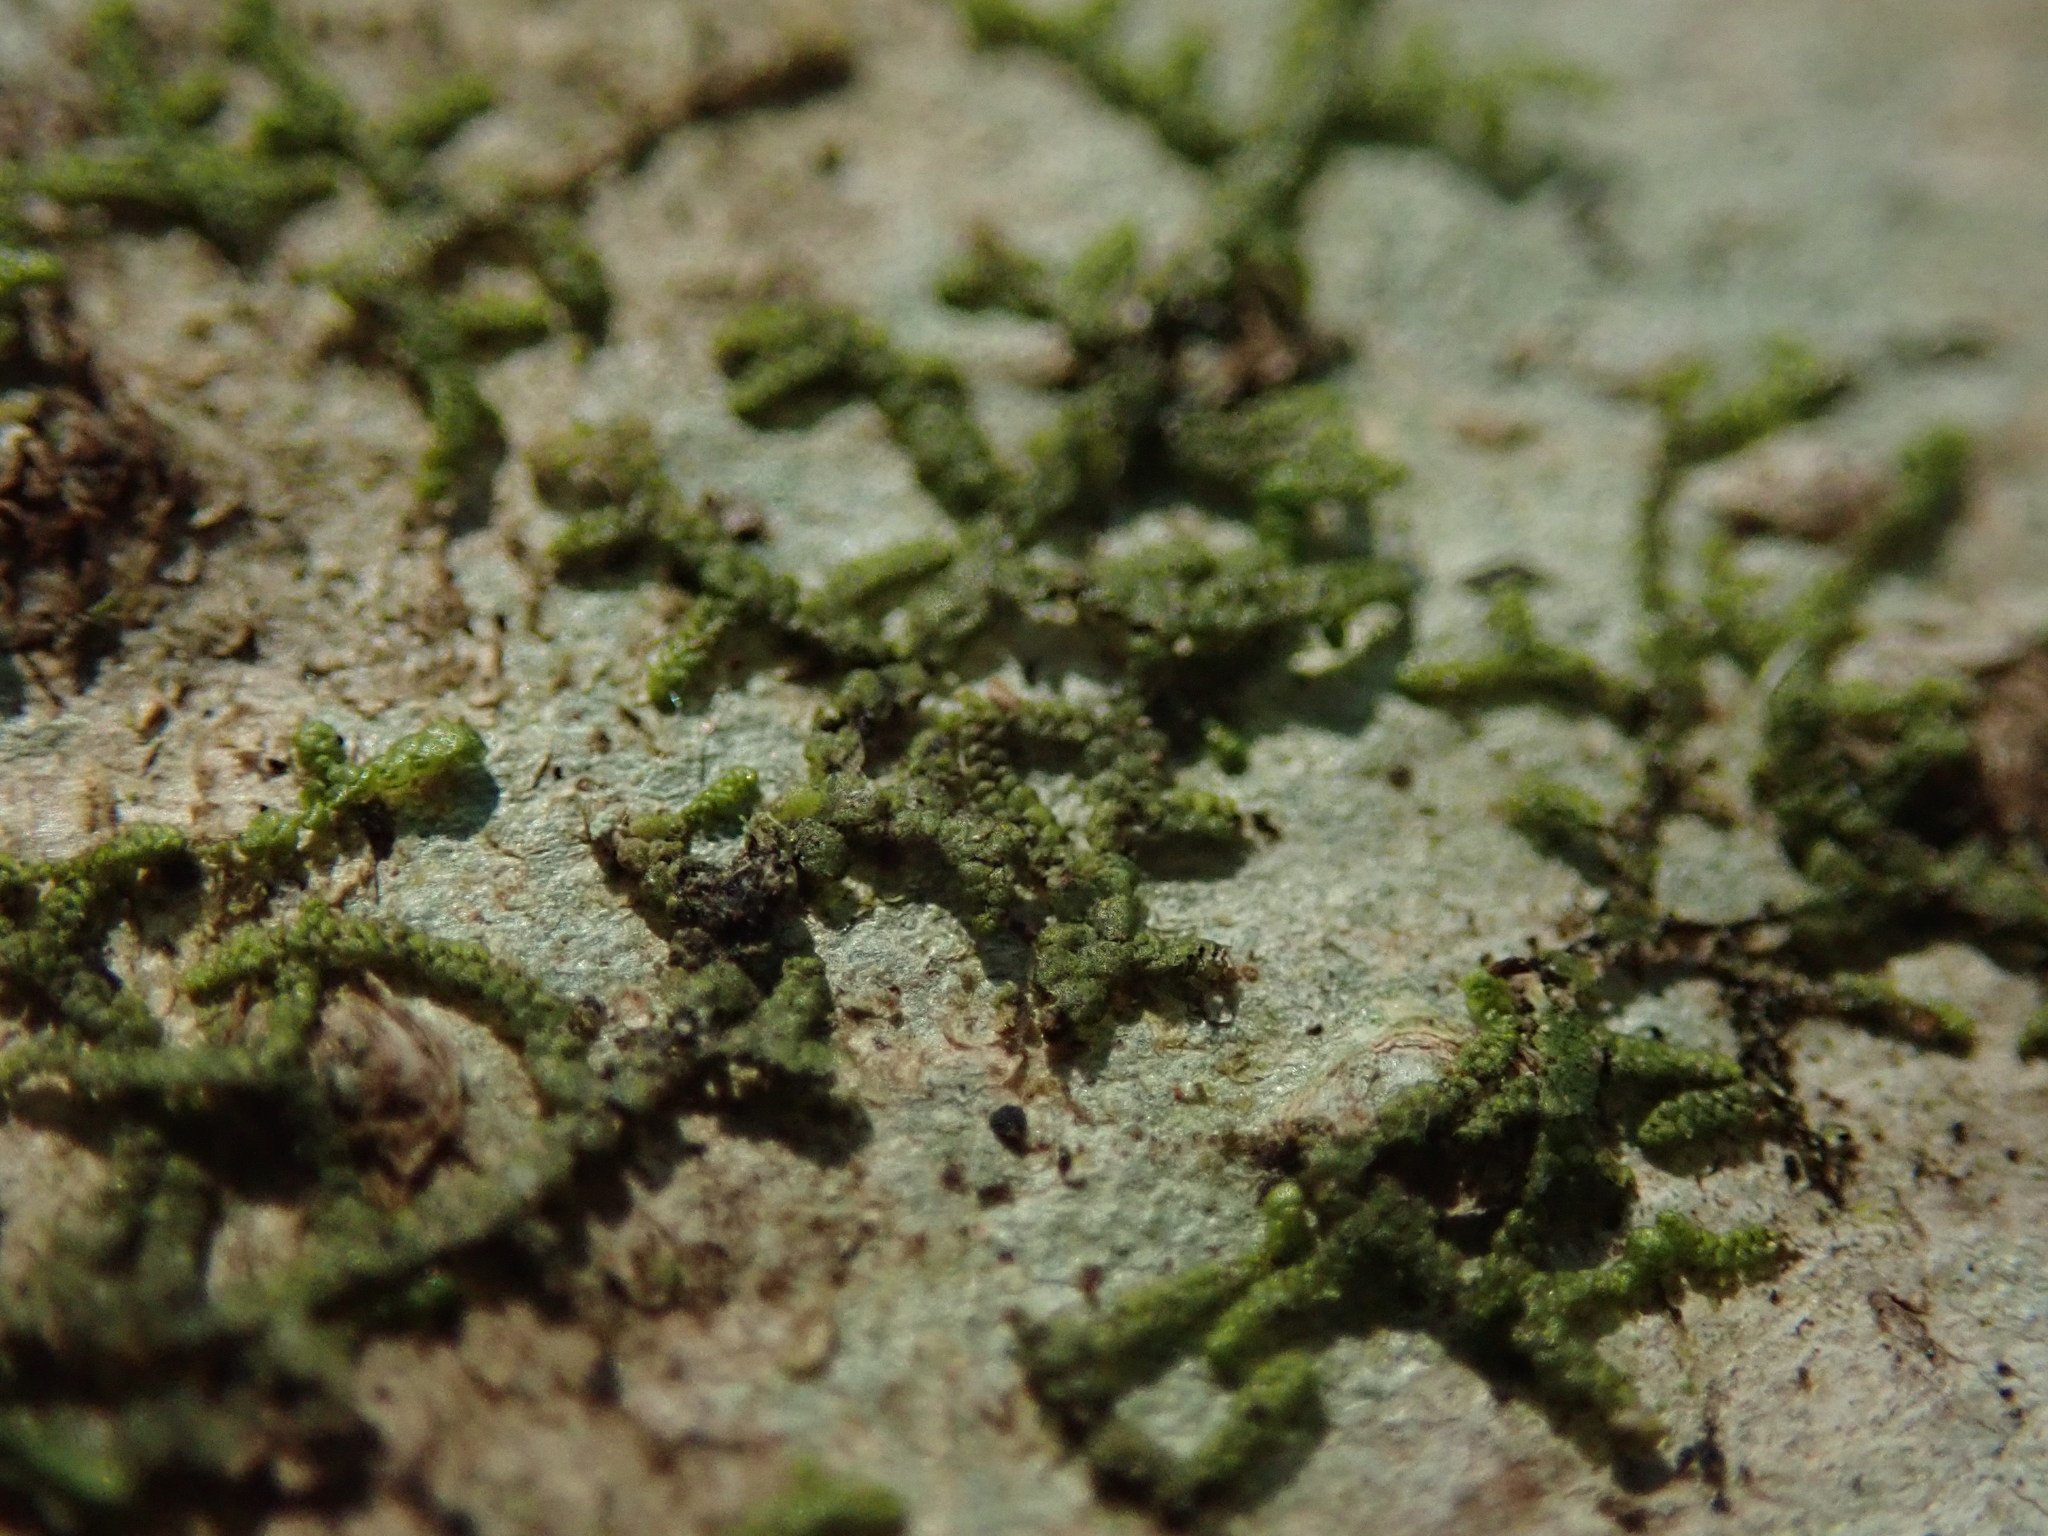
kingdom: Plantae
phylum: Marchantiophyta
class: Jungermanniopsida
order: Porellales
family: Frullaniaceae
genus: Frullania
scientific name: Frullania nisquallensis
